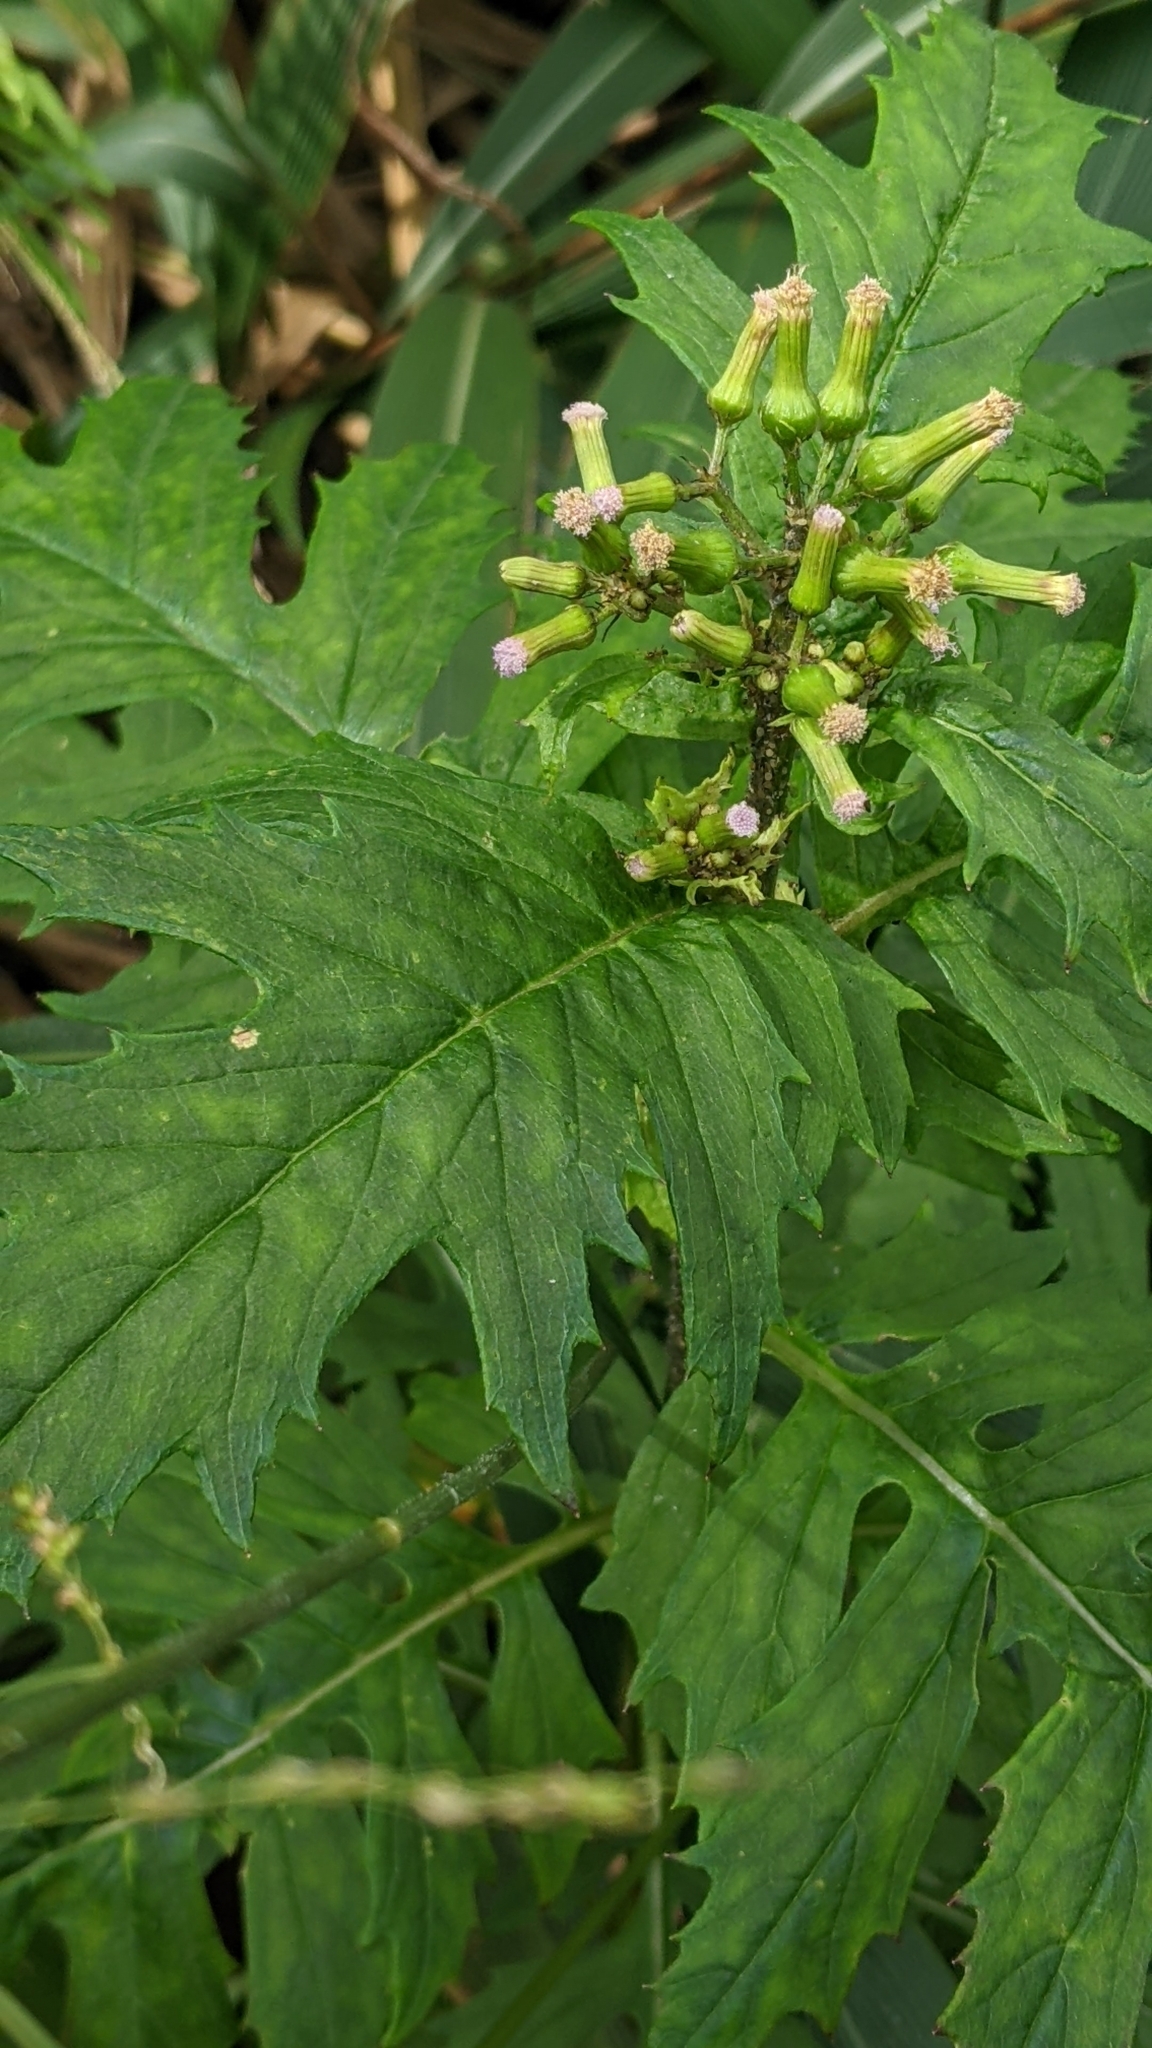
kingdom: Plantae
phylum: Tracheophyta
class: Magnoliopsida
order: Asterales
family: Asteraceae
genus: Erechtites
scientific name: Erechtites valerianifolius
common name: Tropical burnweed
